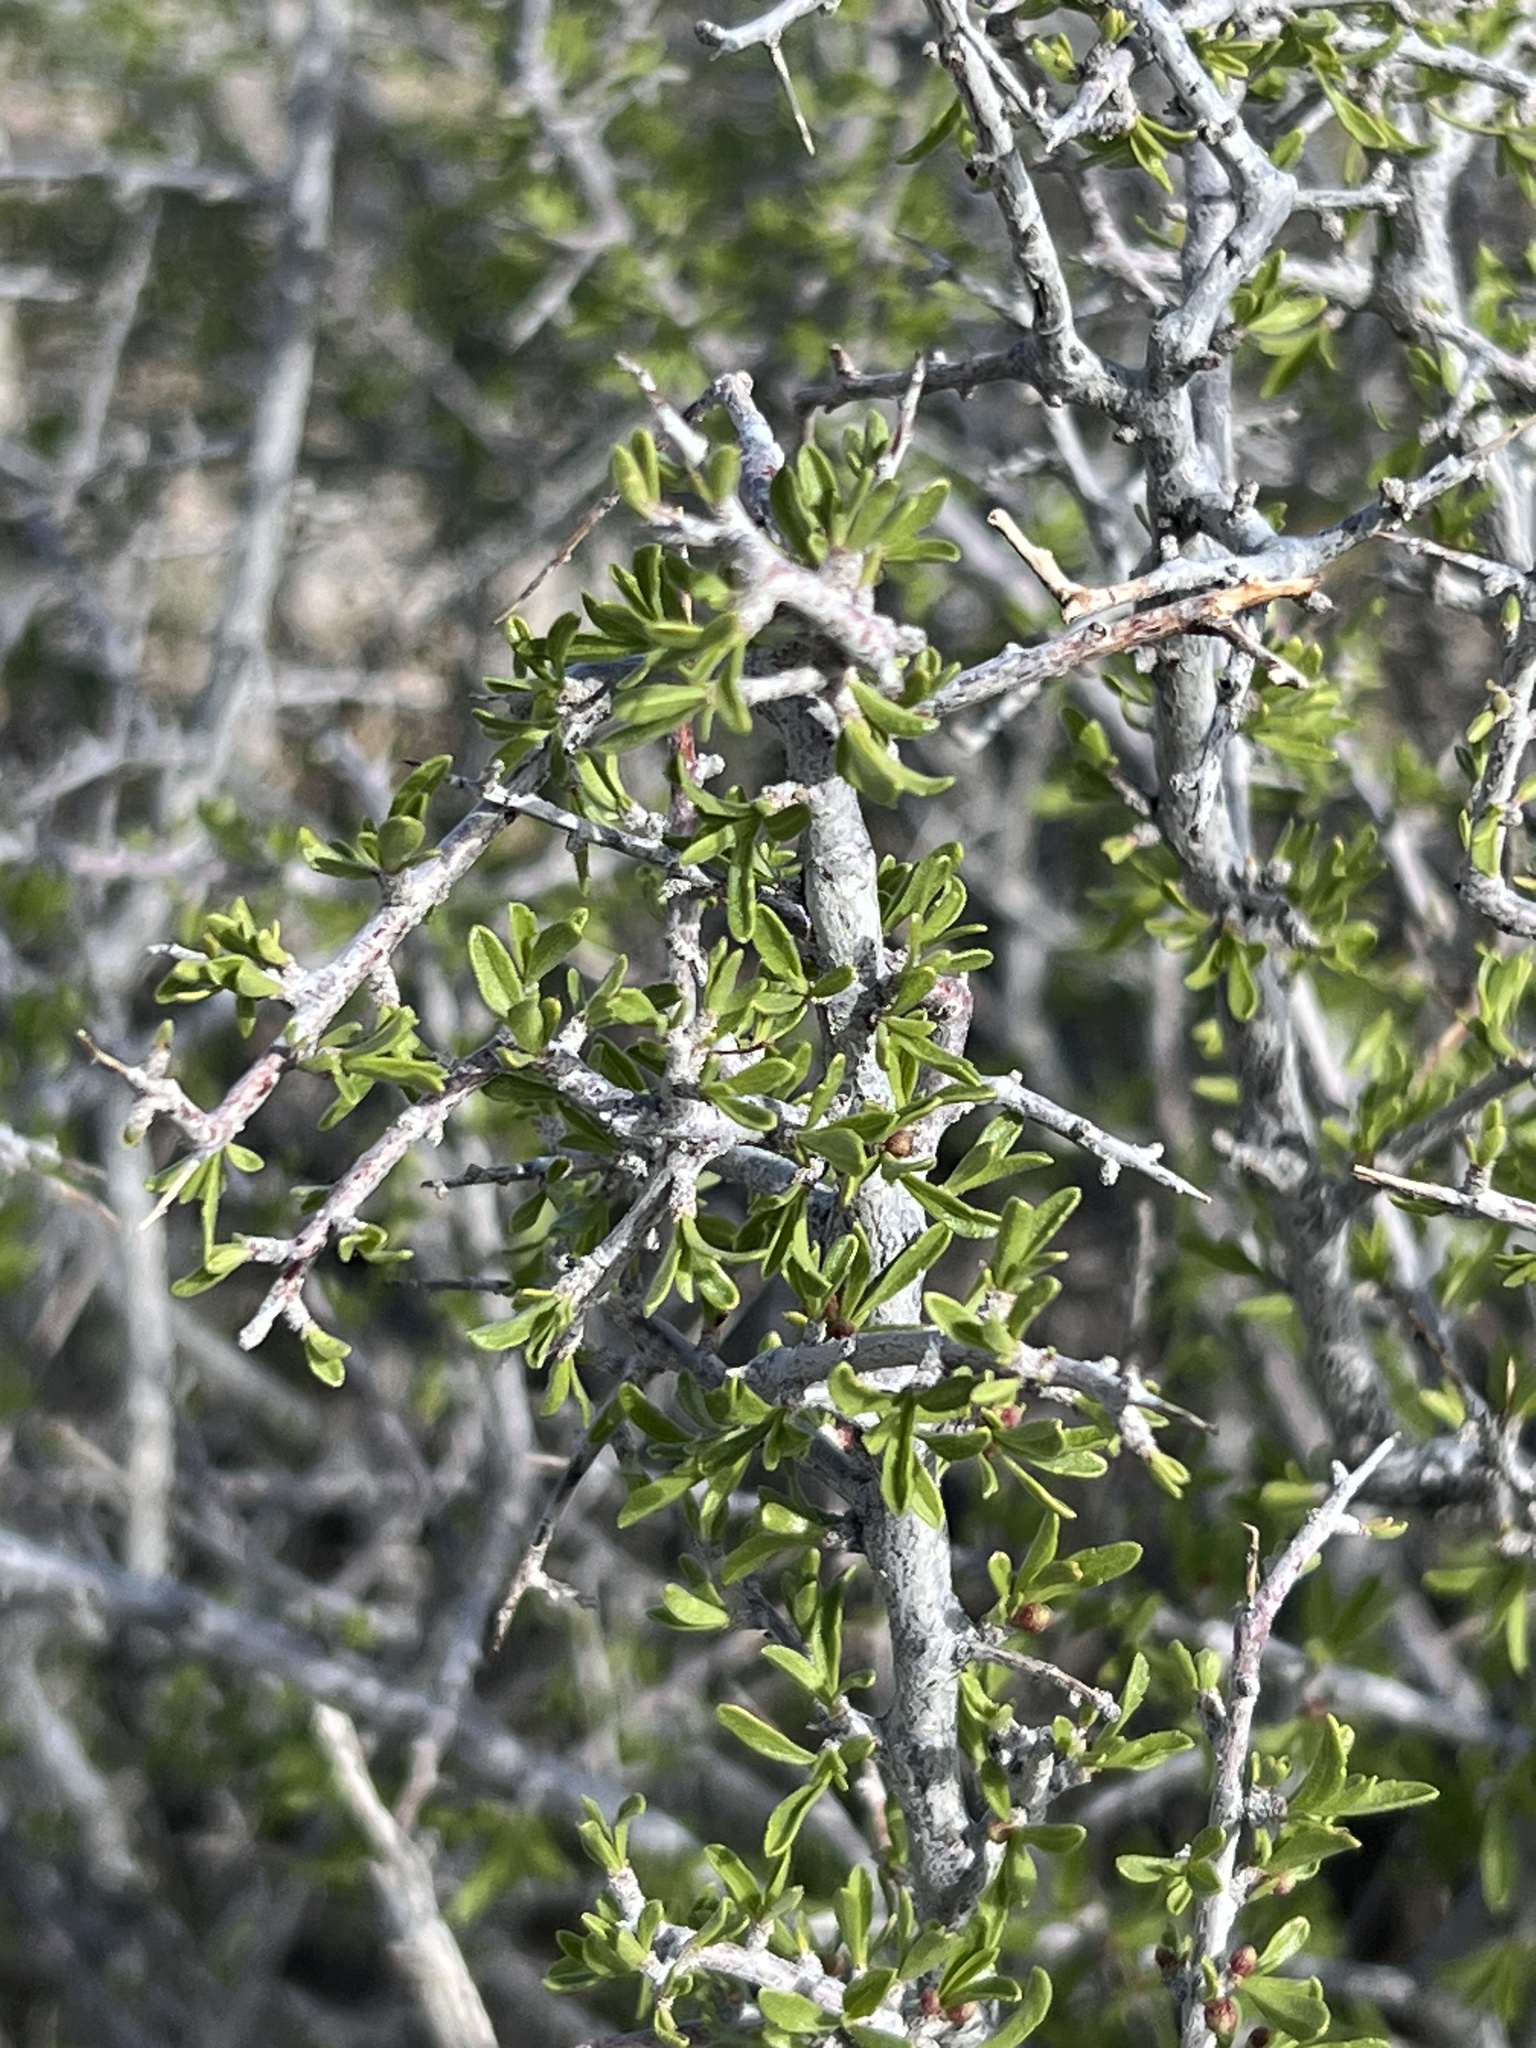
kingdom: Plantae
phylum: Tracheophyta
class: Magnoliopsida
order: Rosales
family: Rosaceae
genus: Prunus
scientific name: Prunus fasciculata
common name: Desert almond
